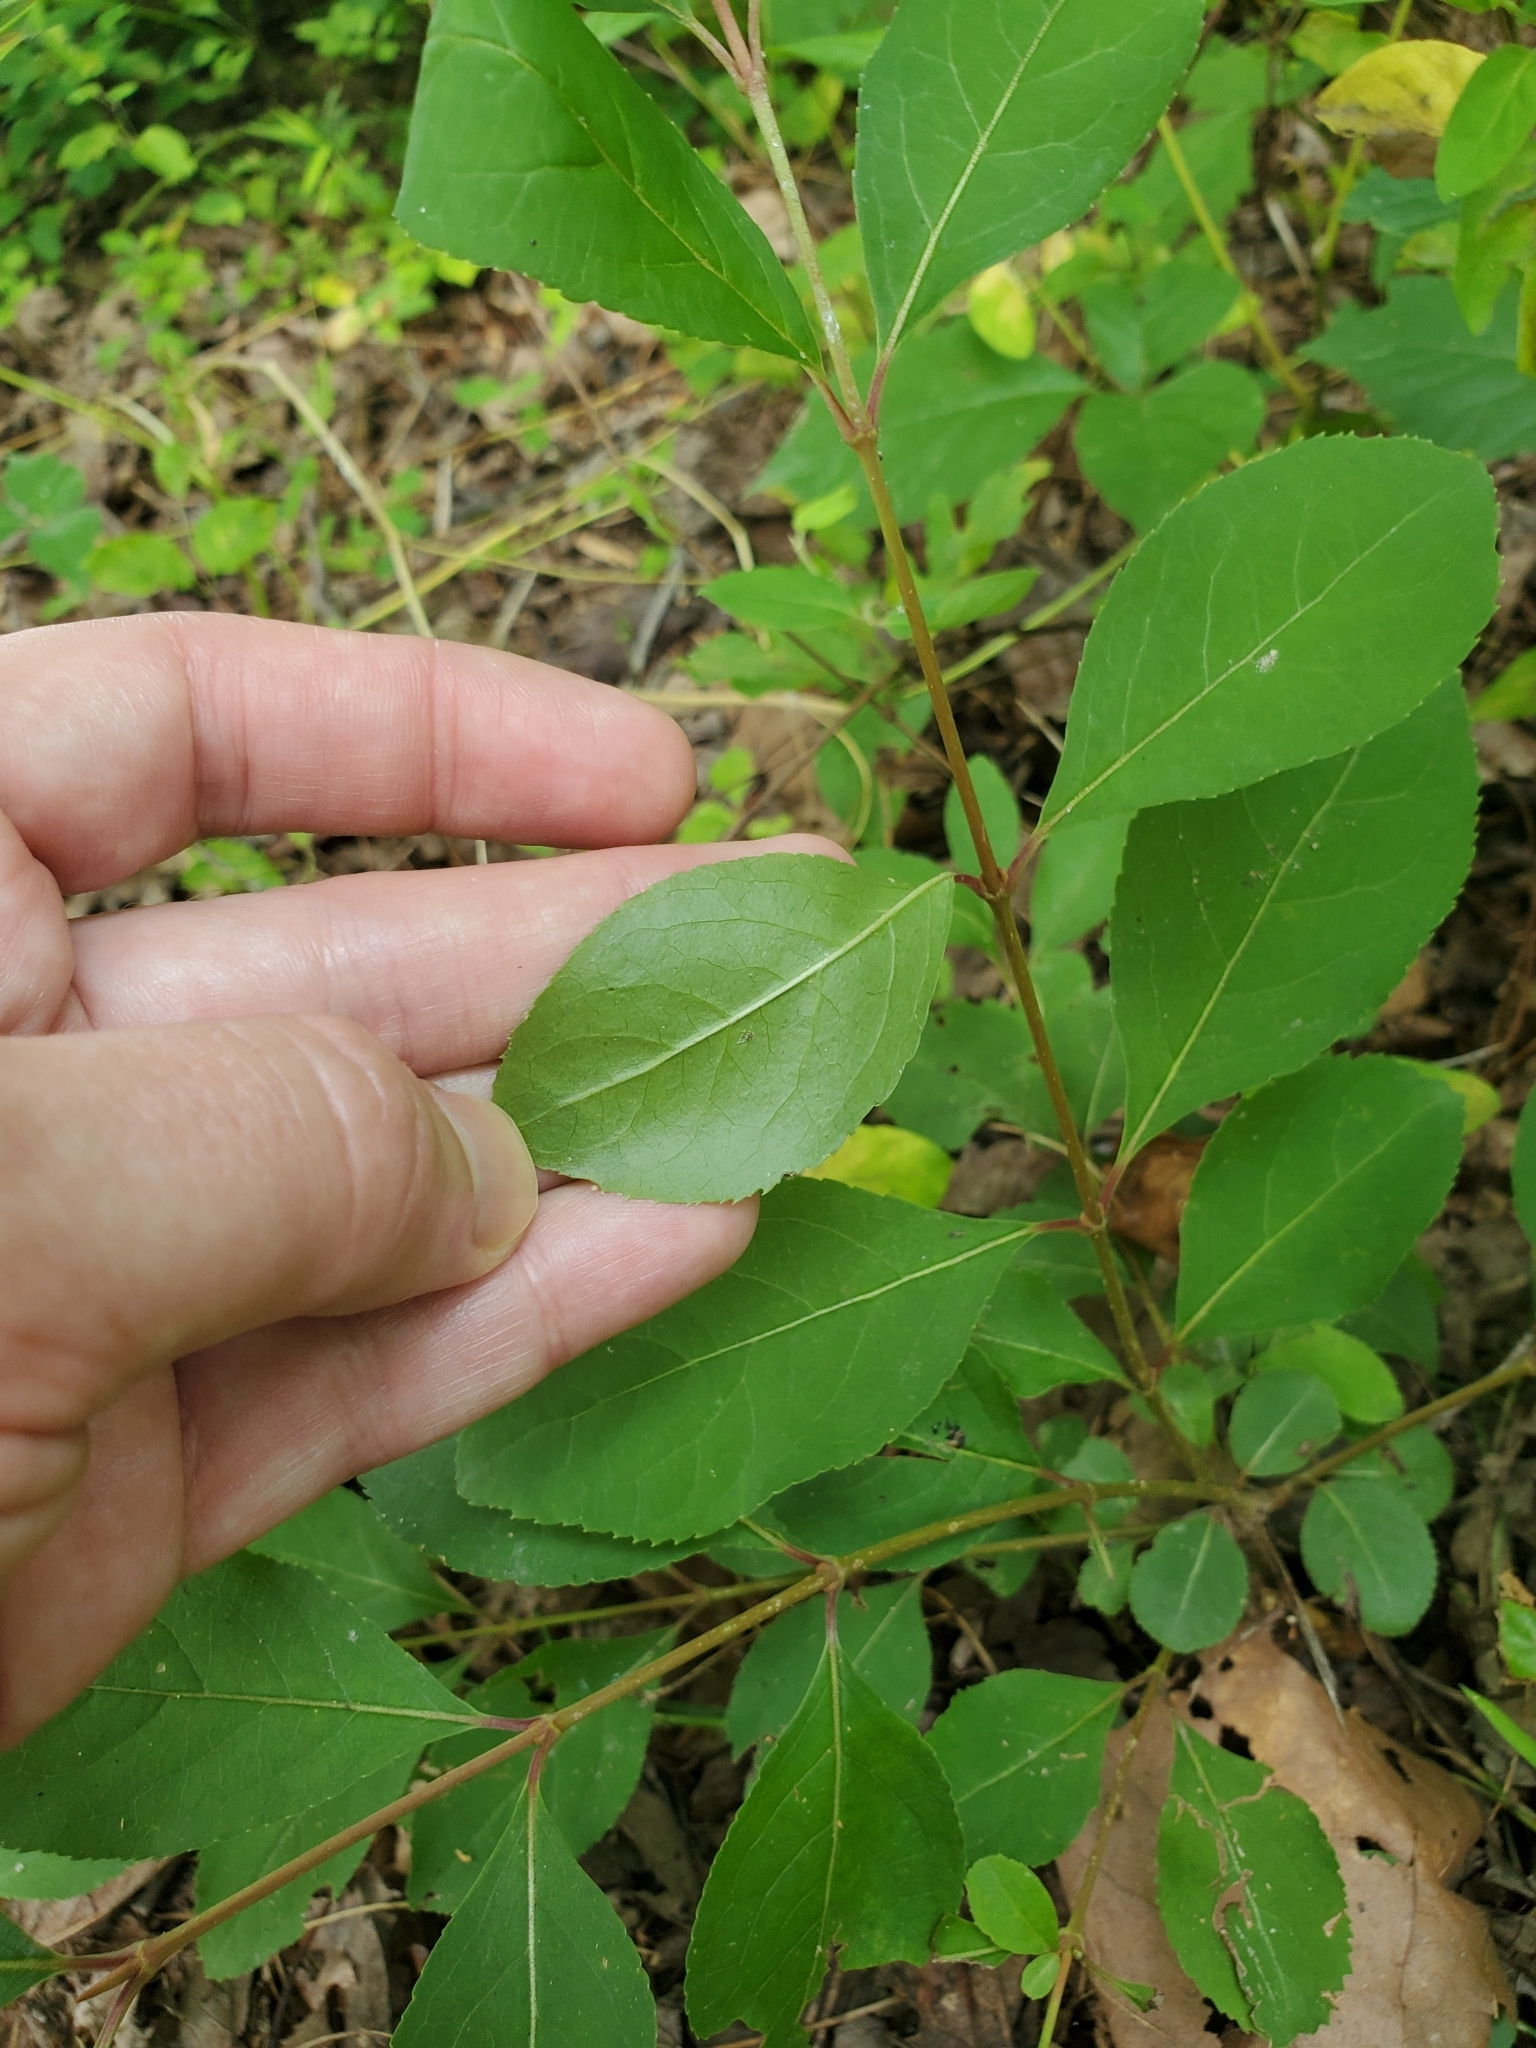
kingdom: Plantae
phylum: Tracheophyta
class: Magnoliopsida
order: Dipsacales
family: Viburnaceae
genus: Viburnum
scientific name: Viburnum prunifolium
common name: Black haw
